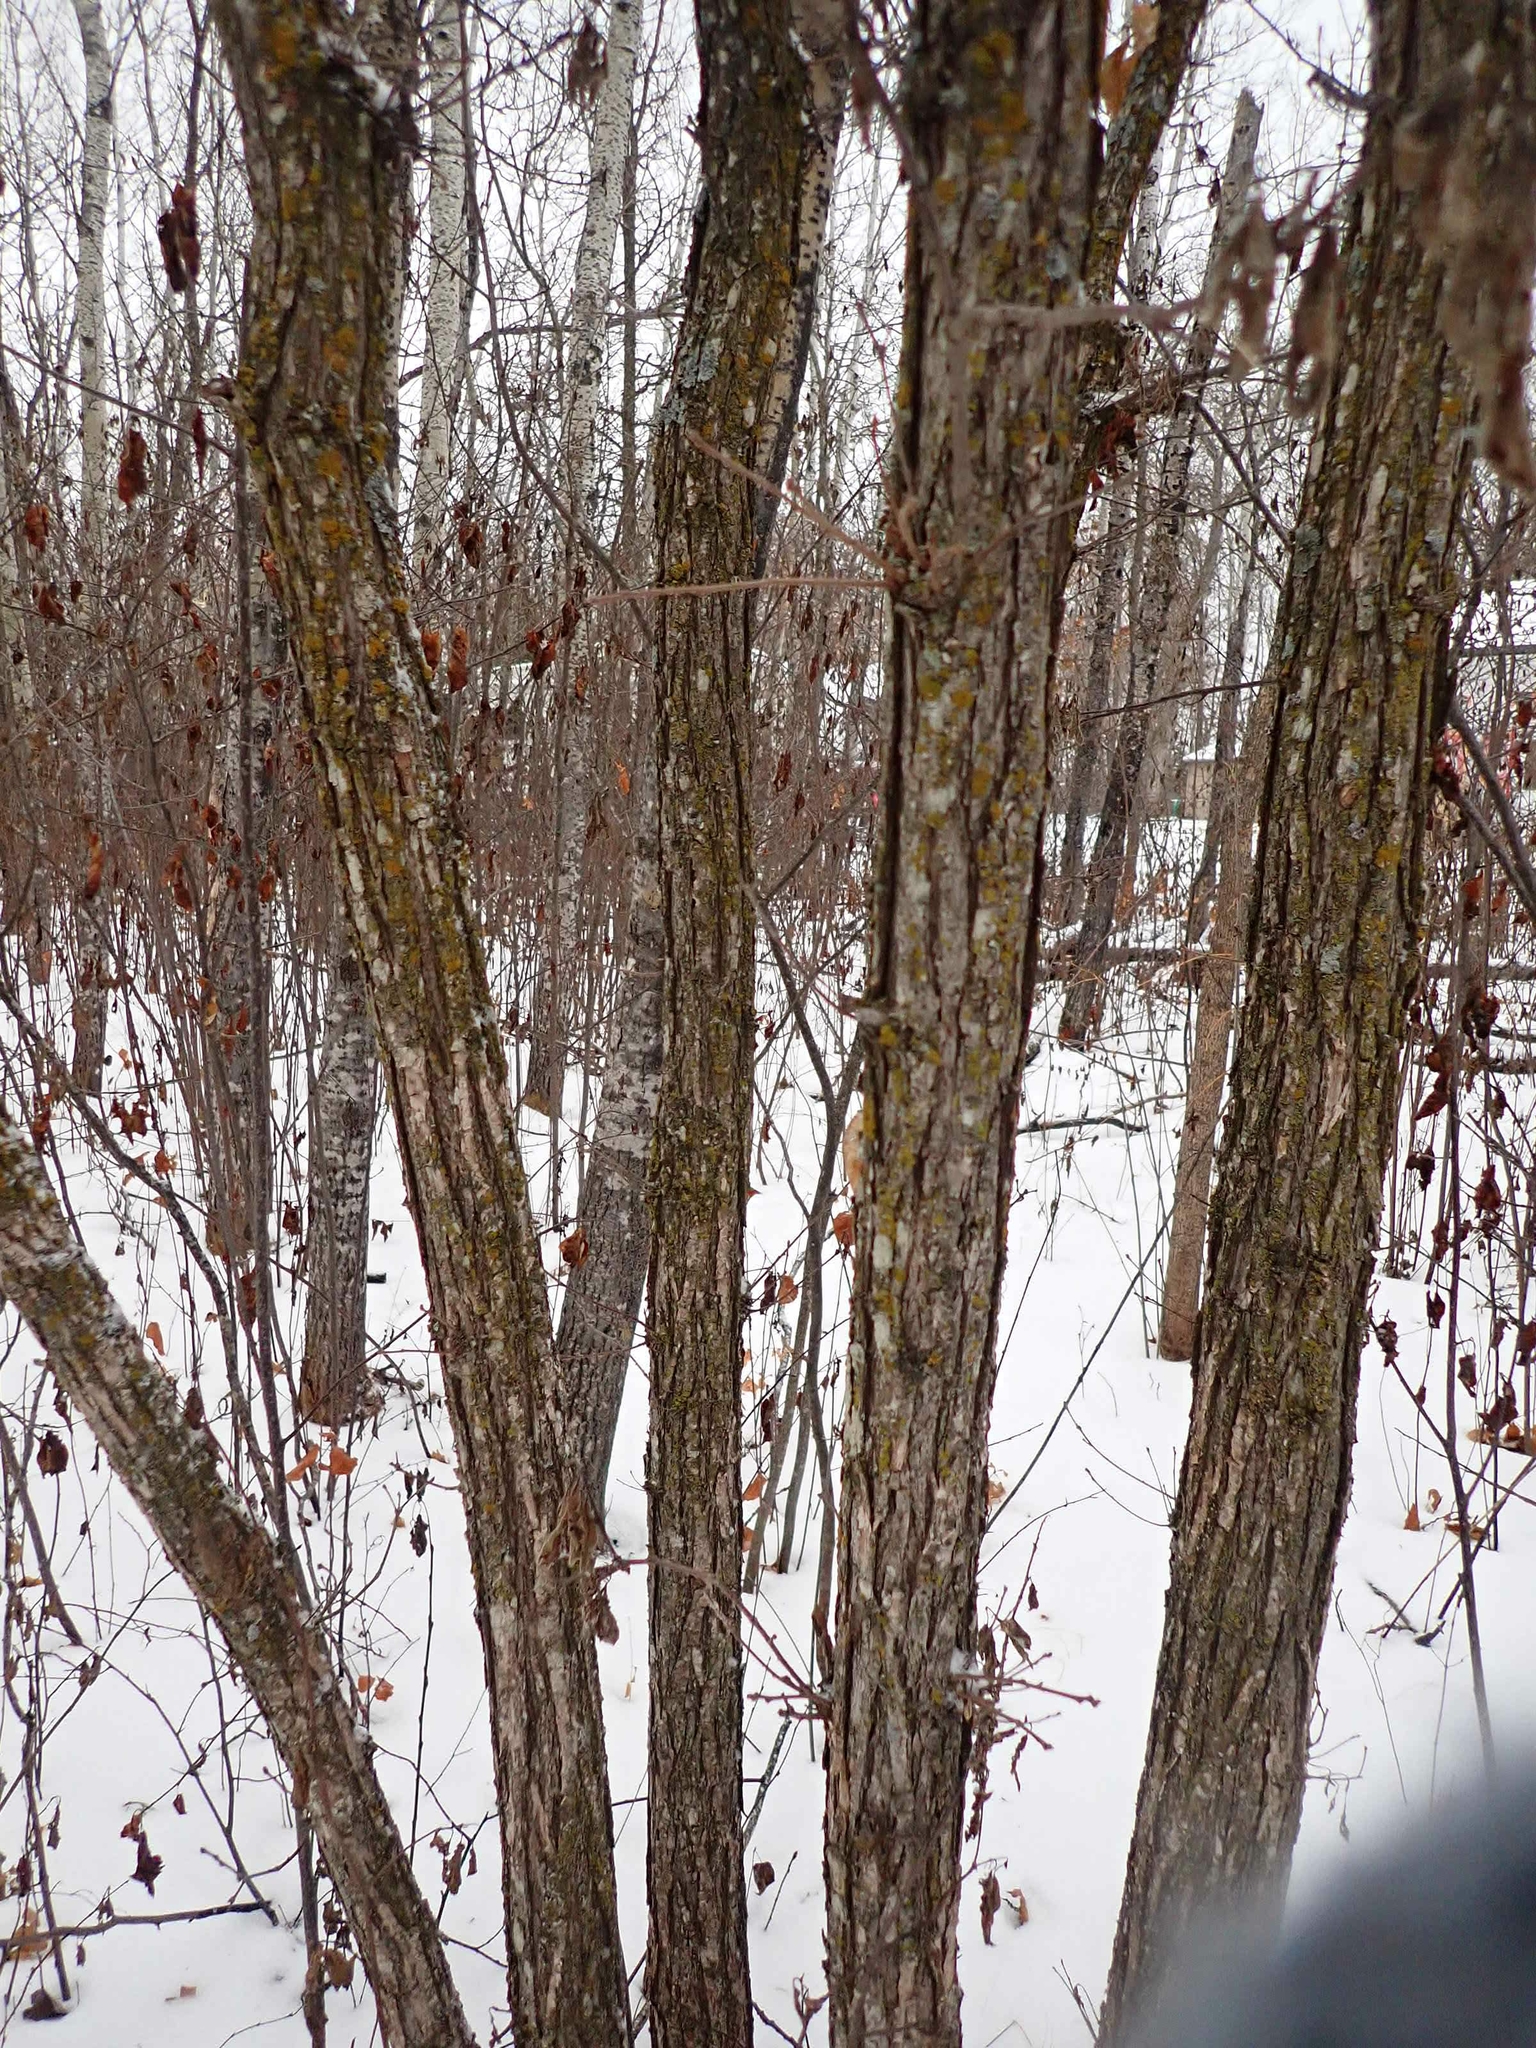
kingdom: Plantae
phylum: Tracheophyta
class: Magnoliopsida
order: Fagales
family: Fagaceae
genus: Quercus
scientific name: Quercus macrocarpa
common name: Bur oak
